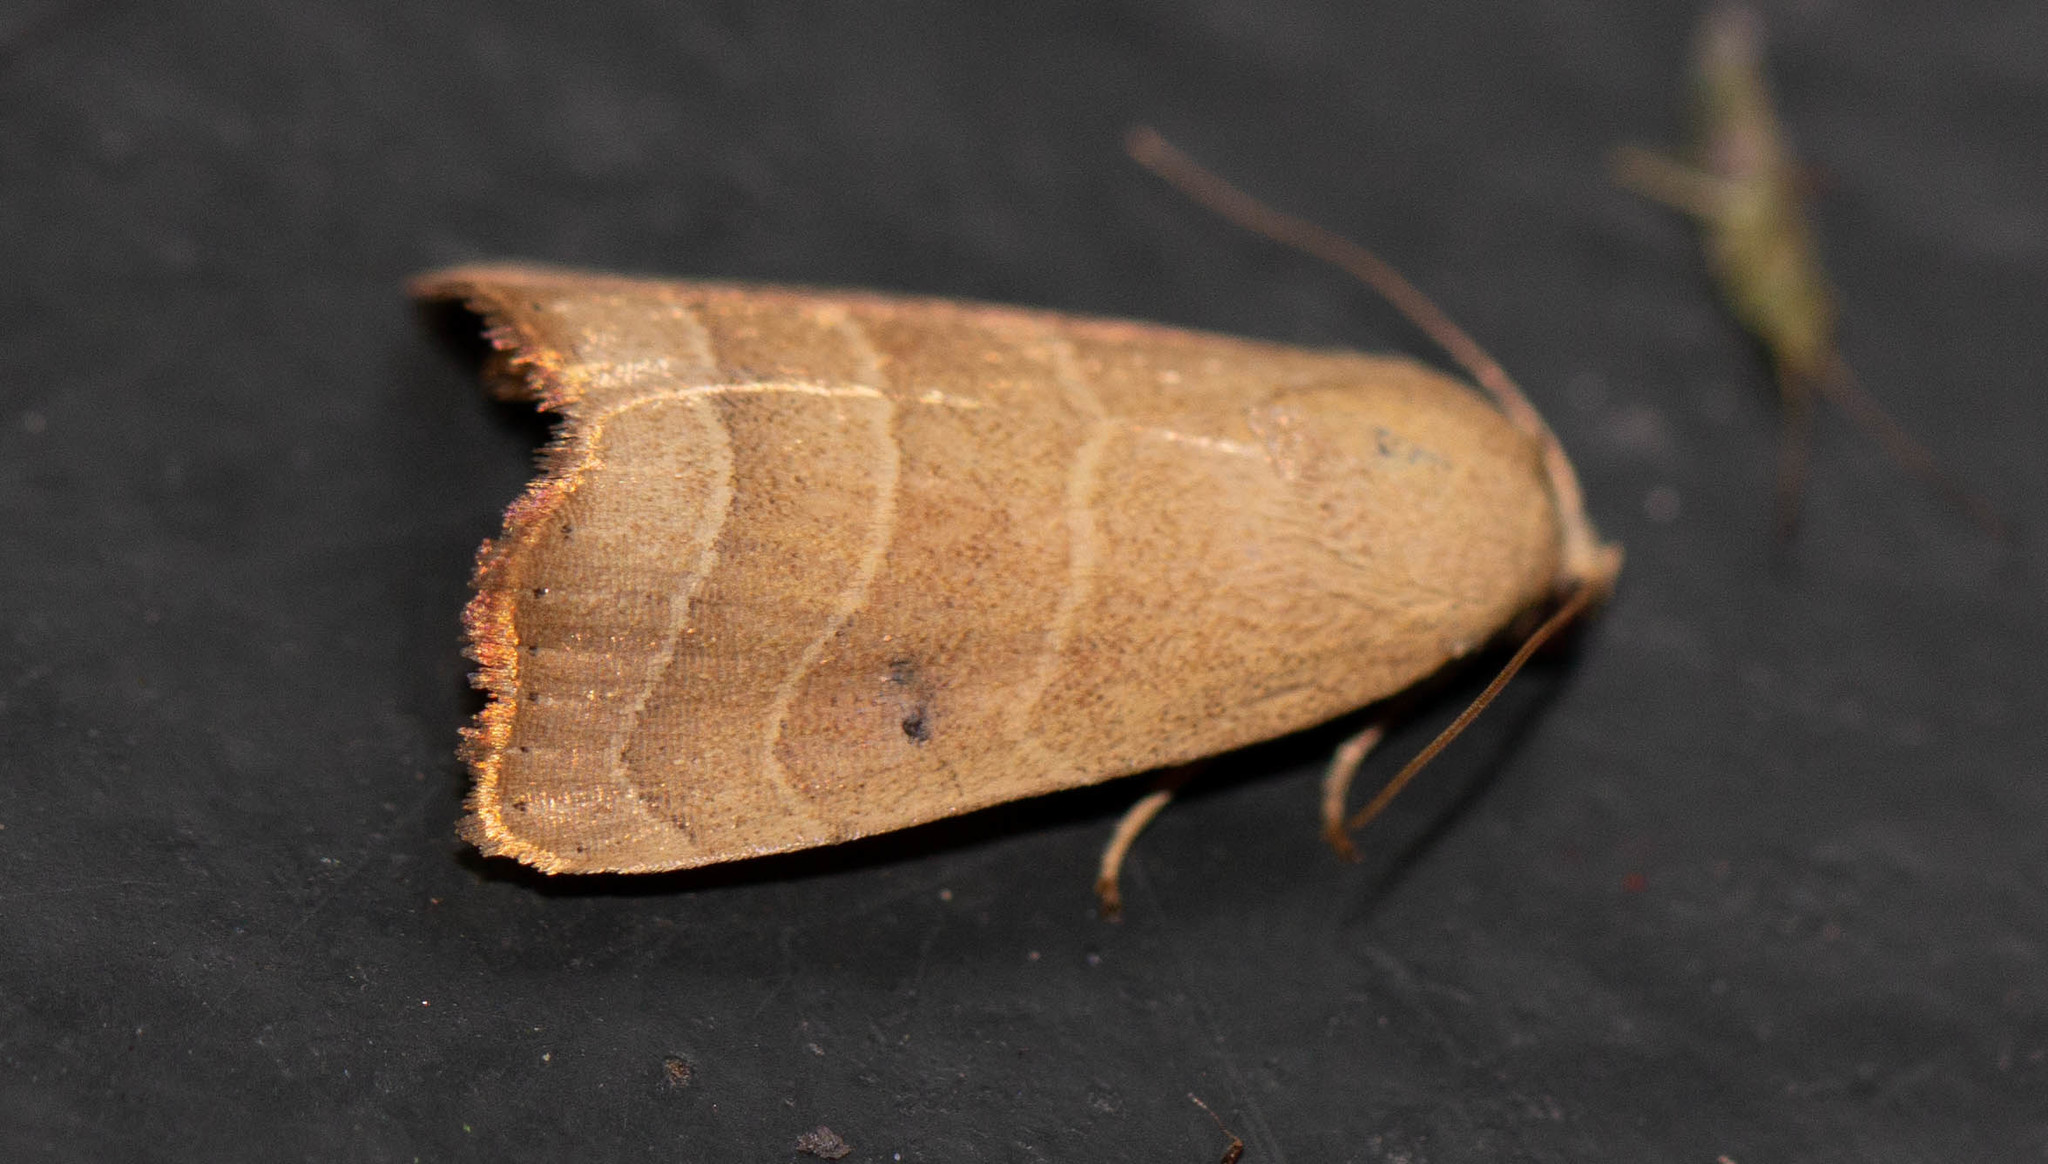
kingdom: Animalia
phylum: Arthropoda
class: Insecta
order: Lepidoptera
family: Noctuidae
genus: Bagisara
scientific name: Bagisara repanda
